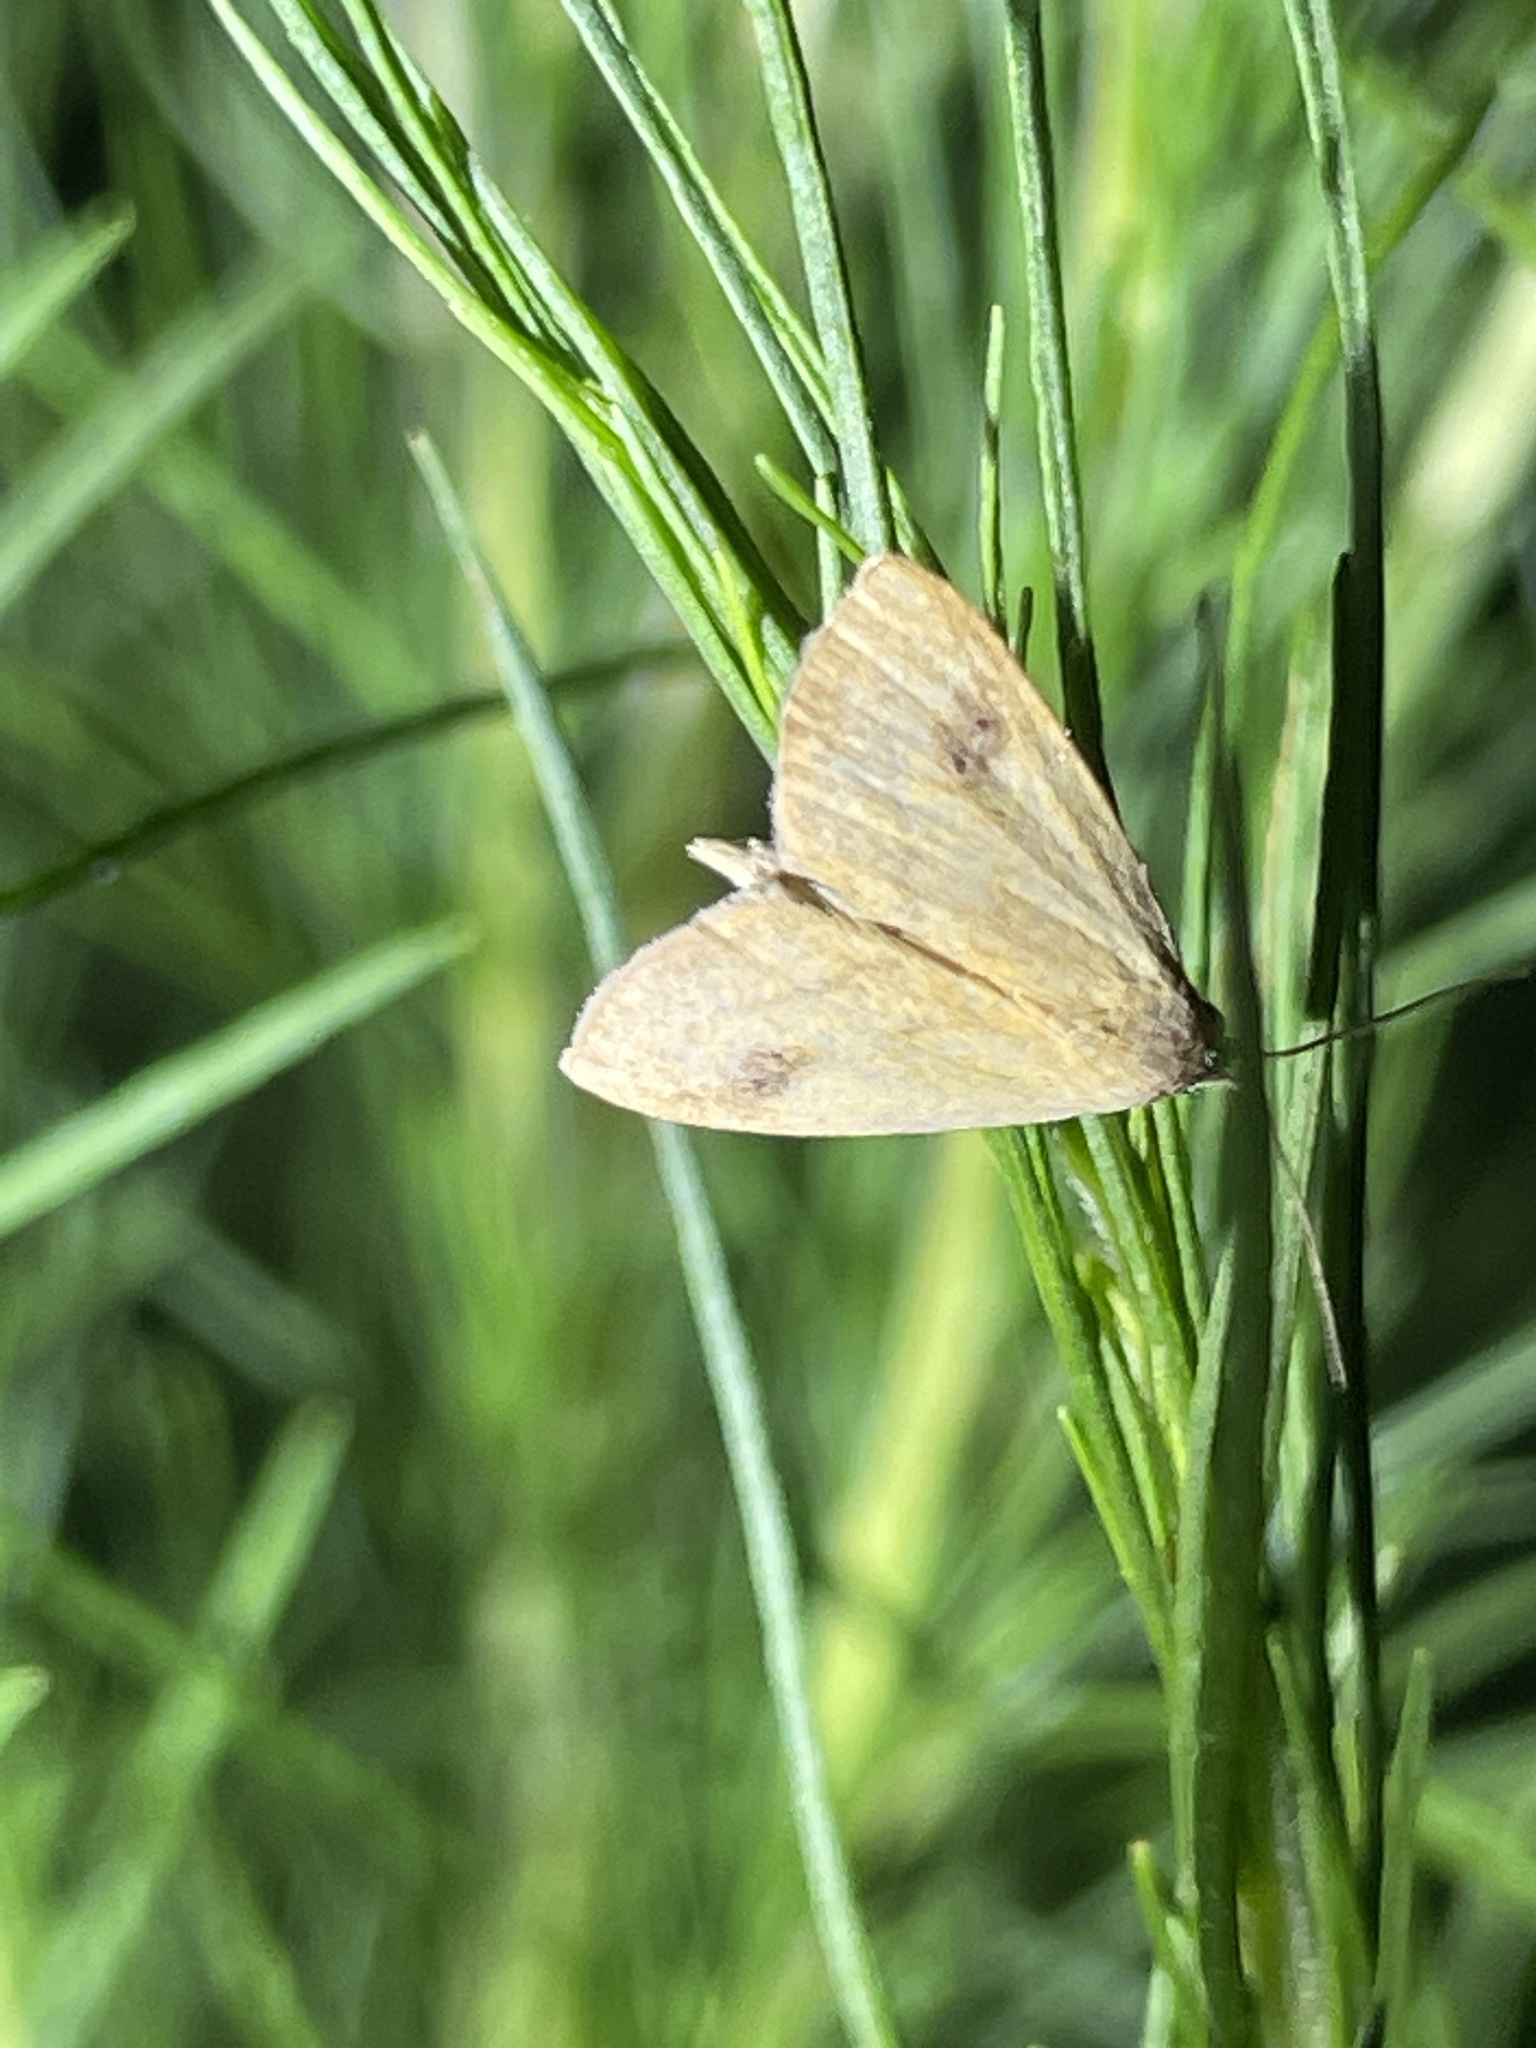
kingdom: Animalia
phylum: Arthropoda
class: Insecta
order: Lepidoptera
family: Erebidae
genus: Rivula
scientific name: Rivula propinqualis
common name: Spotted grass moth
